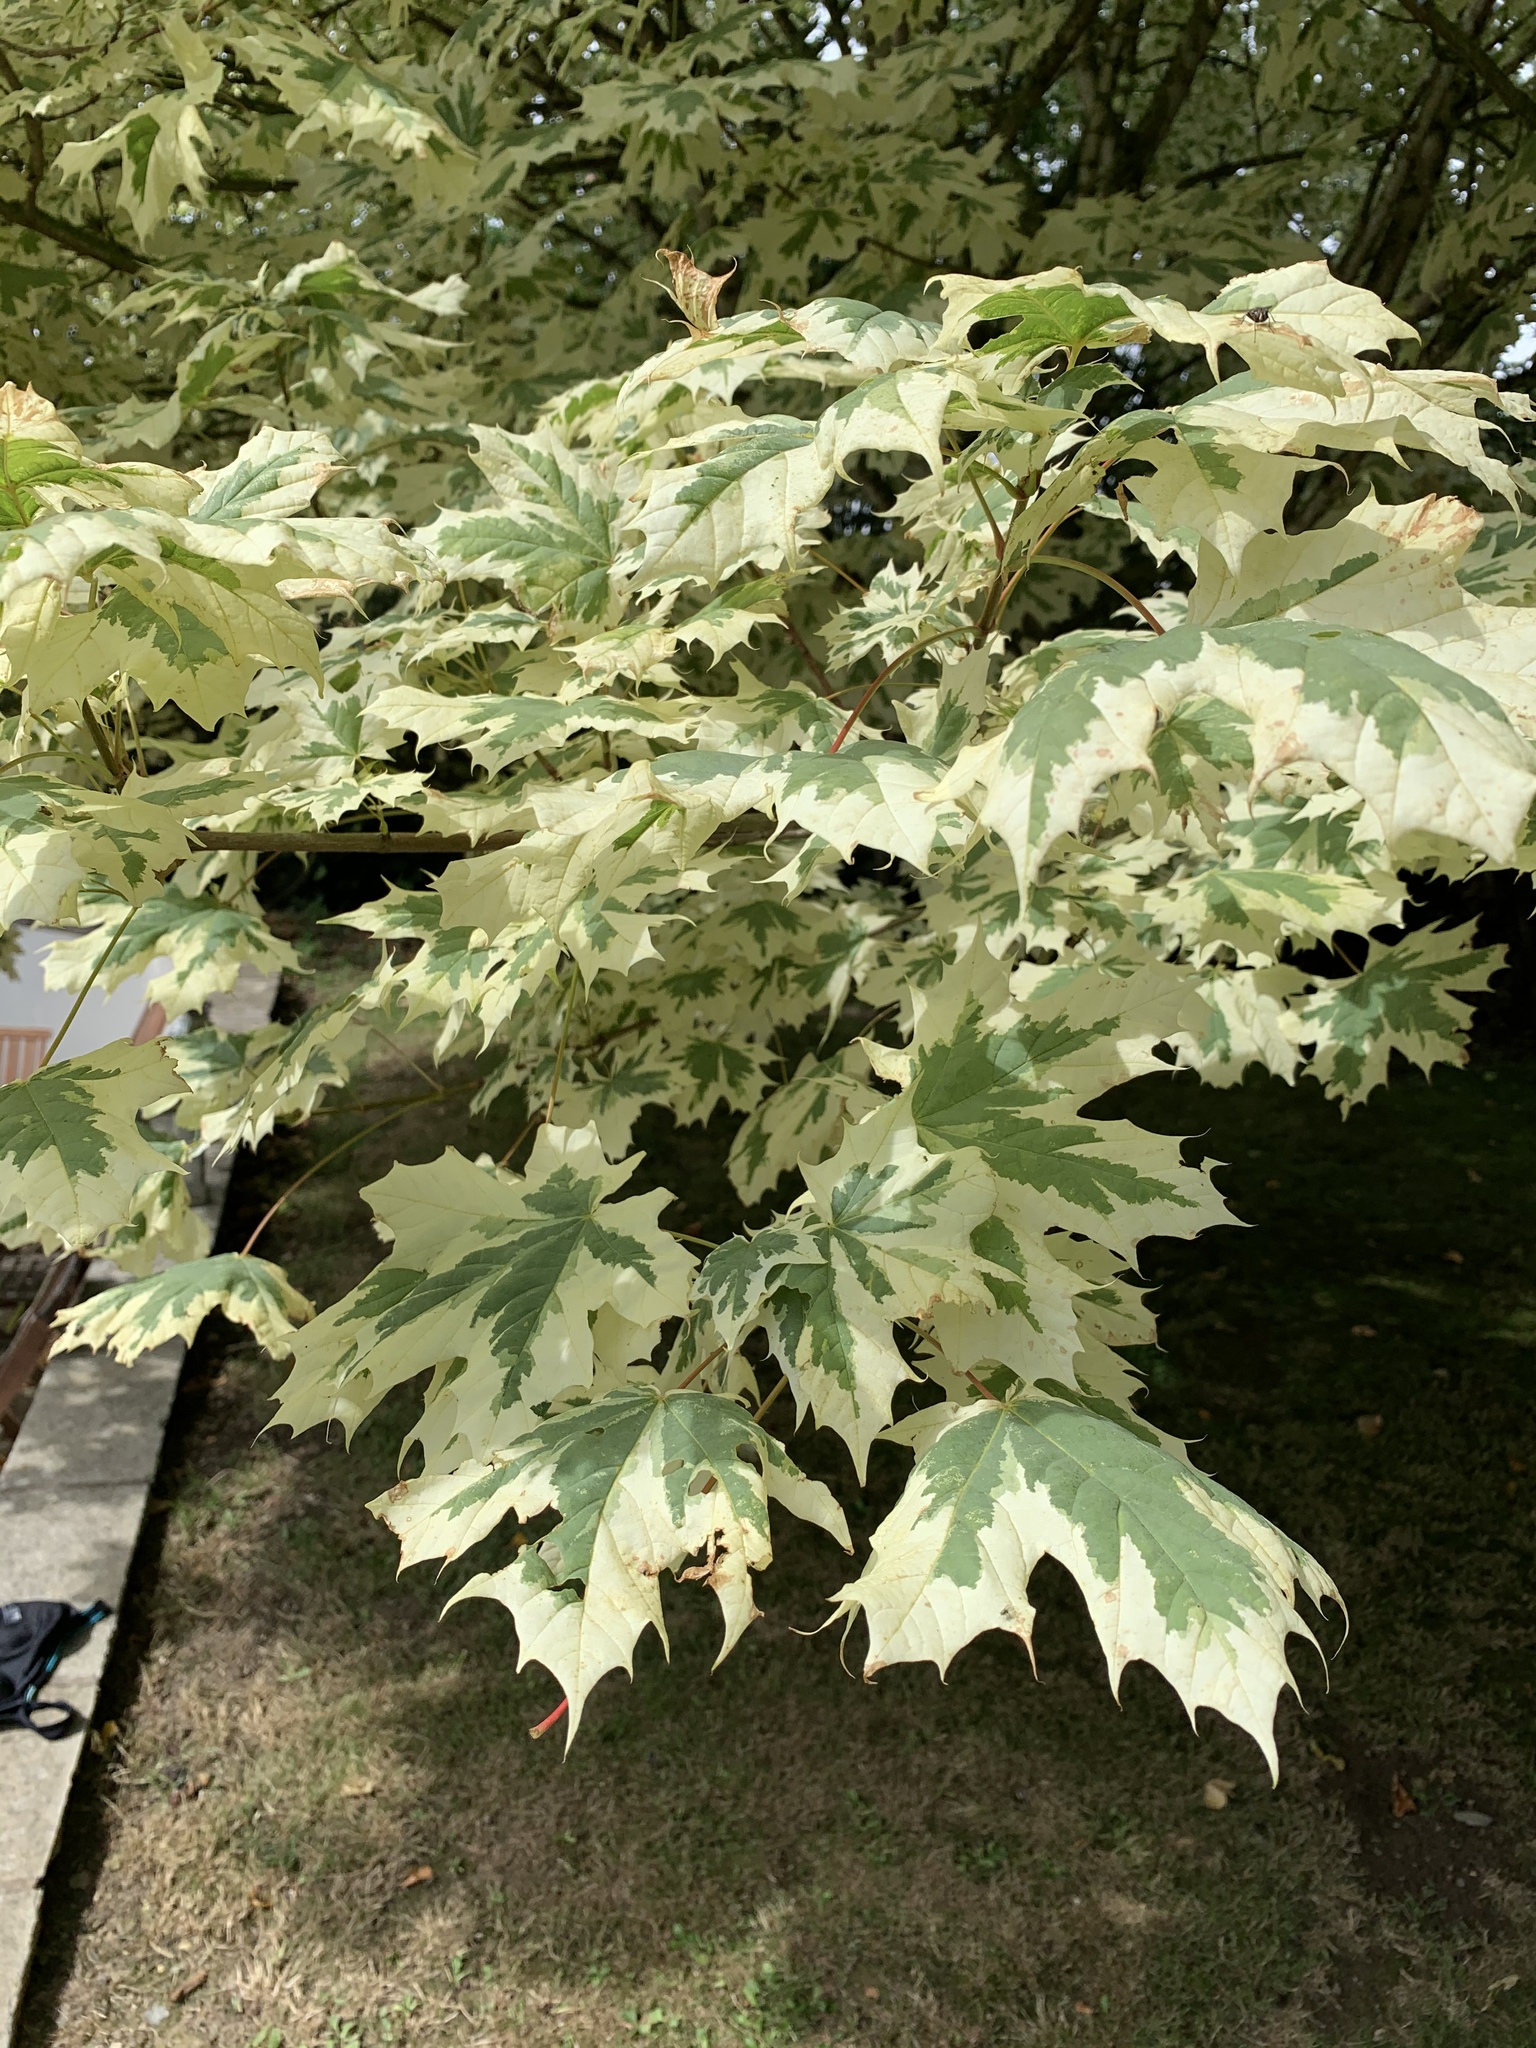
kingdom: Plantae
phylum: Tracheophyta
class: Magnoliopsida
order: Sapindales
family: Sapindaceae
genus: Acer
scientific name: Acer platanoides
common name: Norway maple
